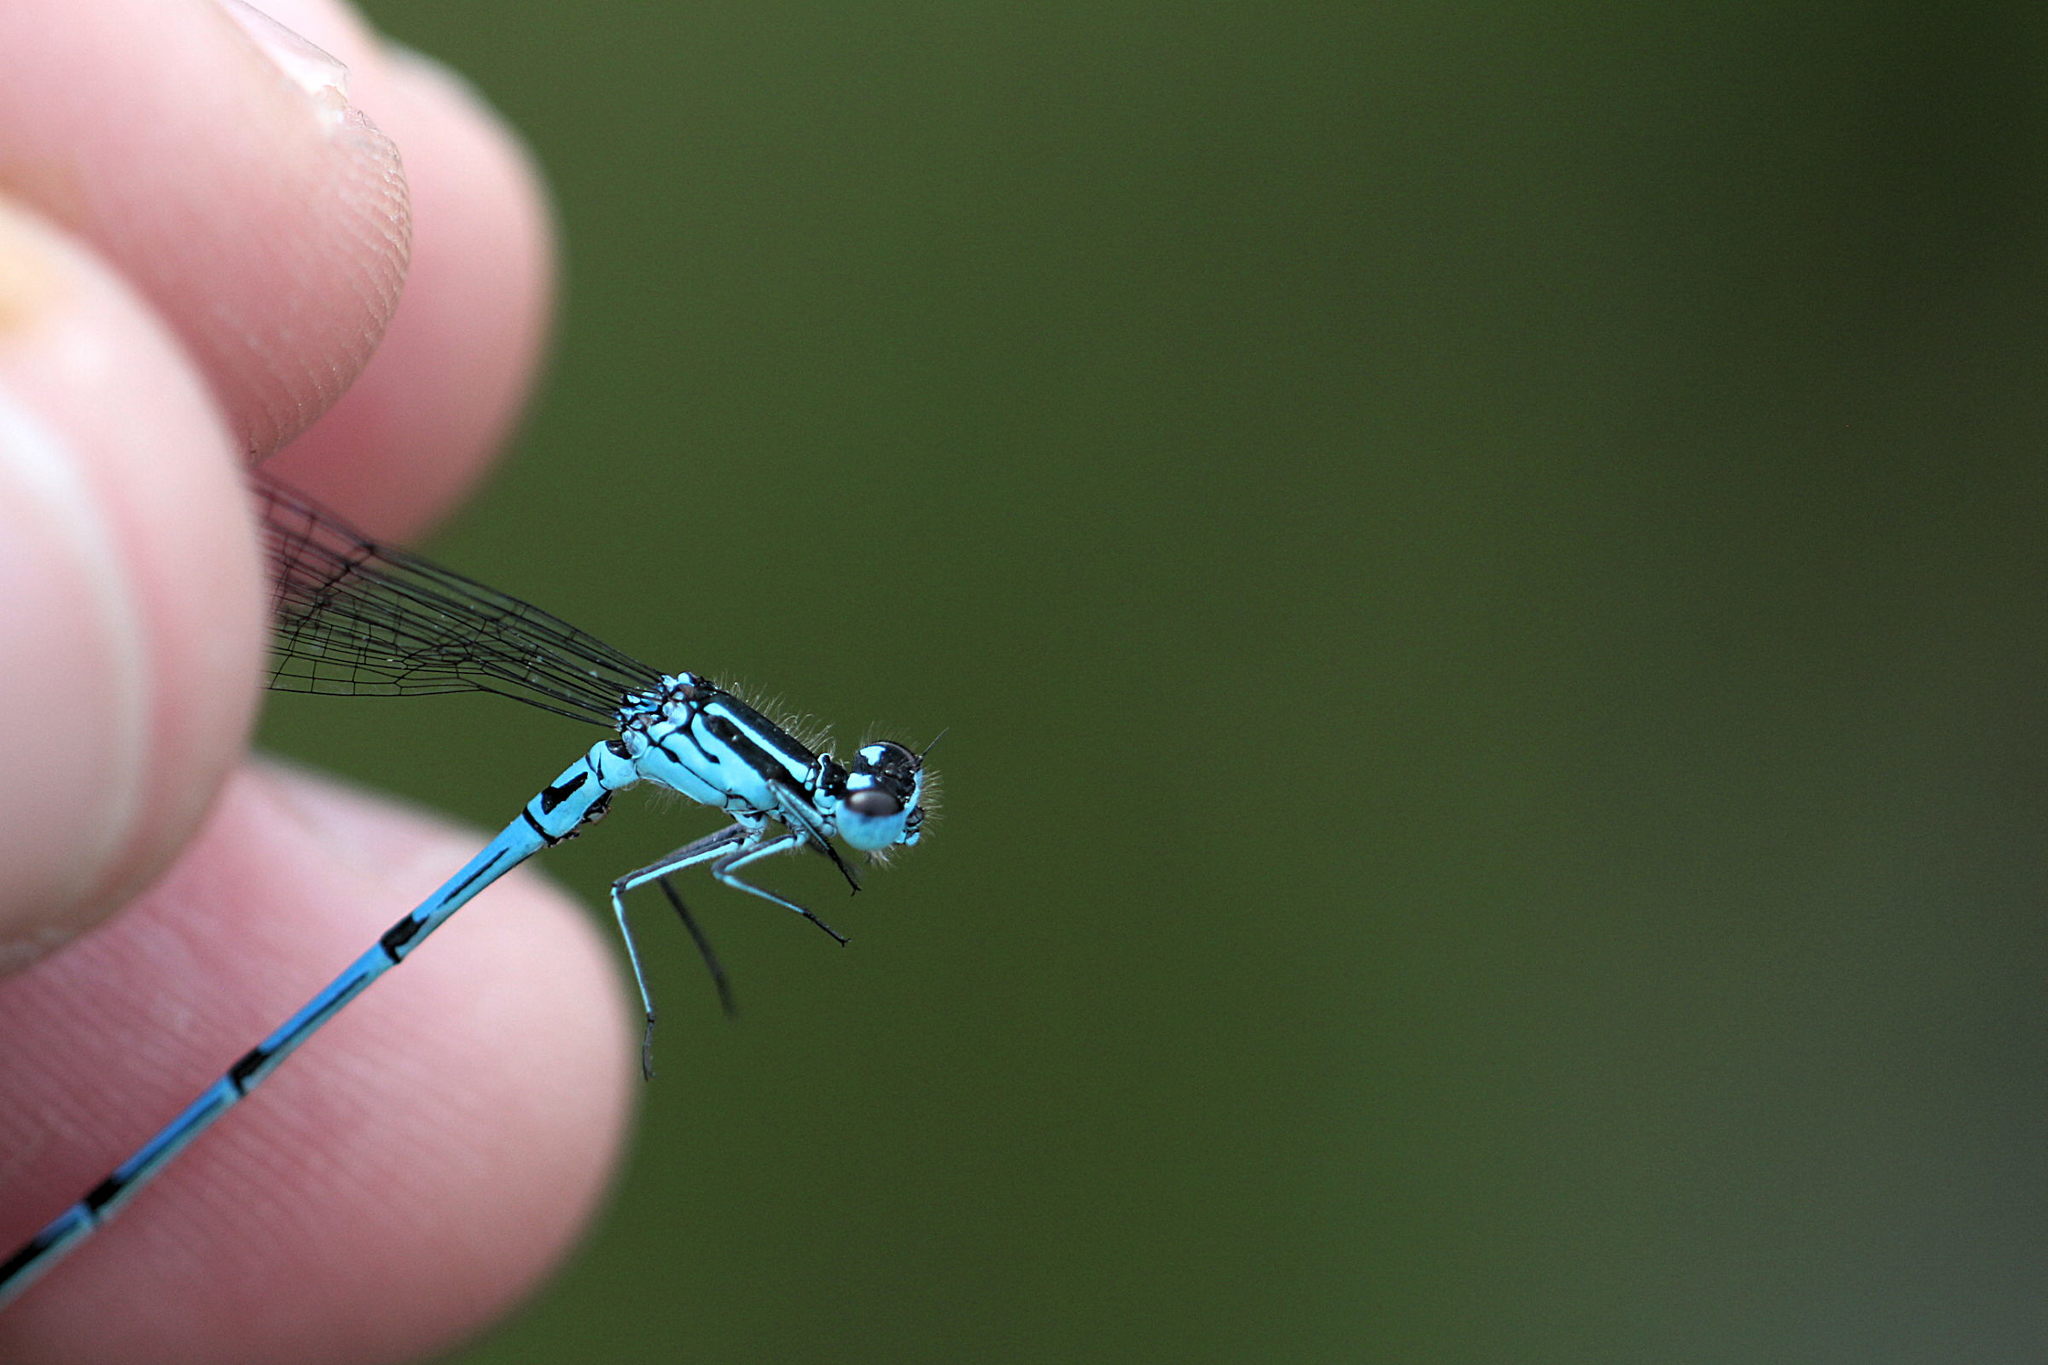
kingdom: Animalia
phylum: Arthropoda
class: Insecta
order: Odonata
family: Coenagrionidae
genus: Coenagrion
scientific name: Coenagrion puella
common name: Azure damselfly
